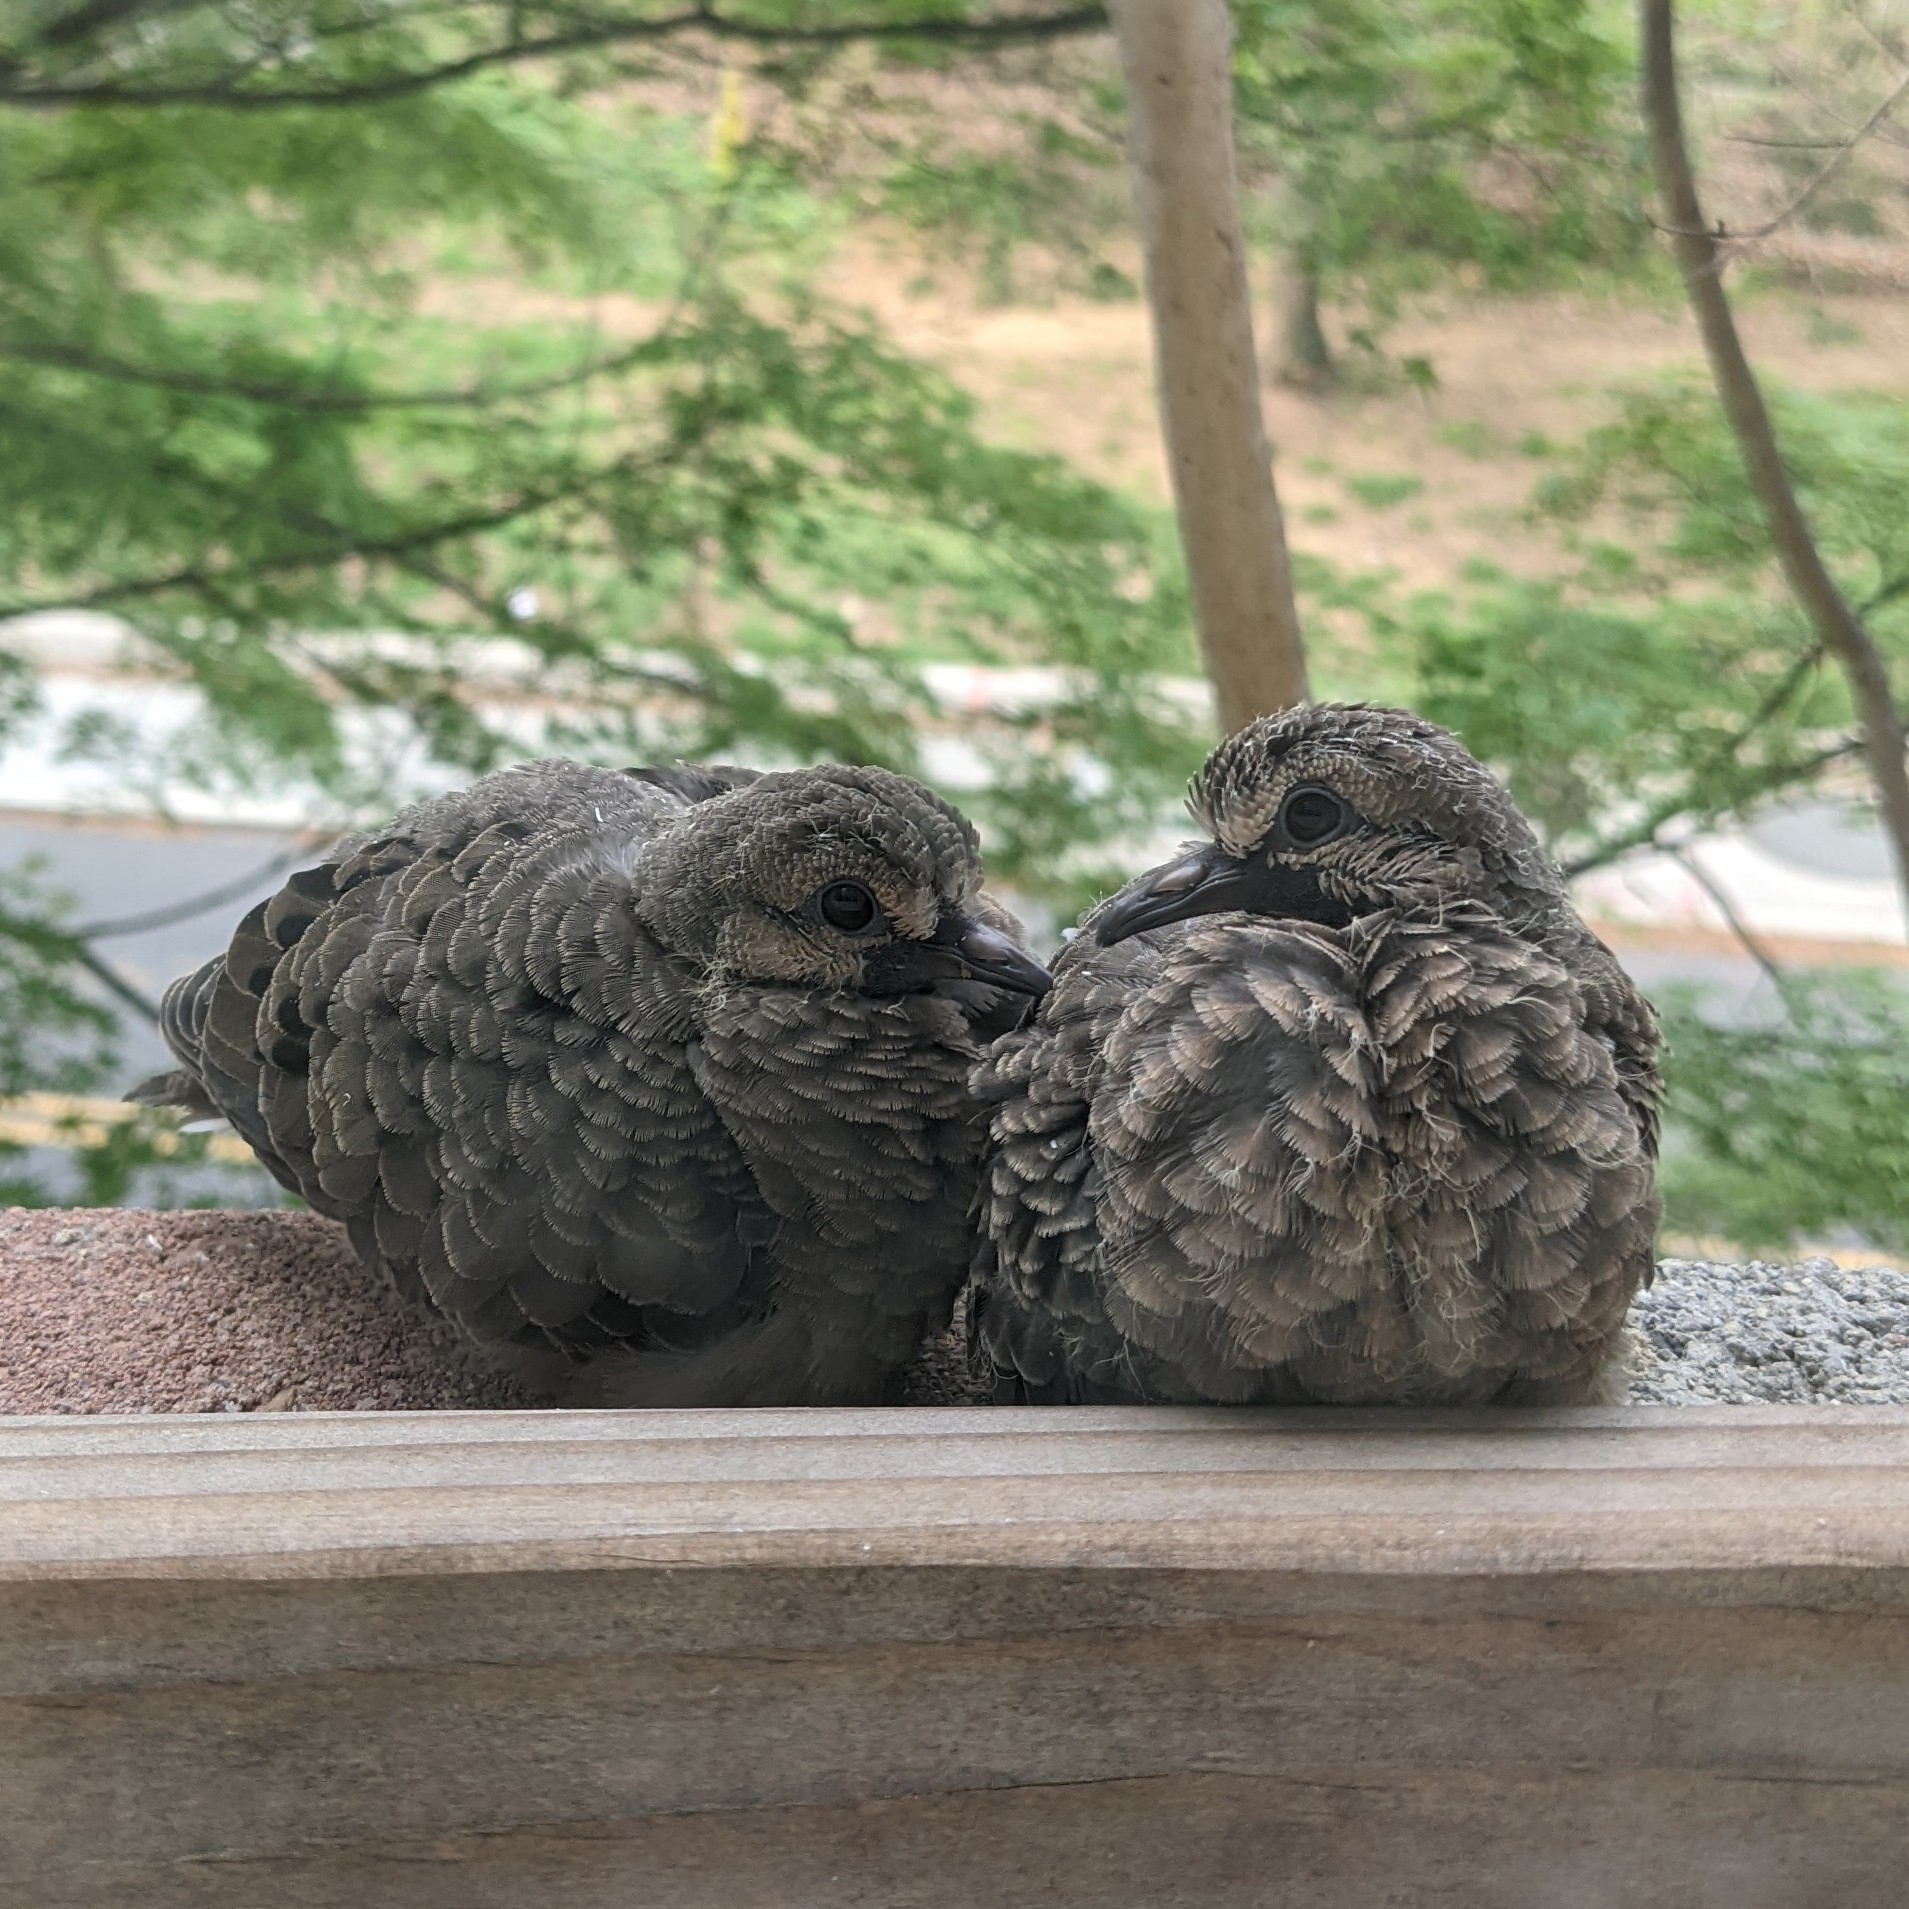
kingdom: Animalia
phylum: Chordata
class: Aves
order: Columbiformes
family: Columbidae
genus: Zenaida
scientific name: Zenaida macroura
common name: Mourning dove
